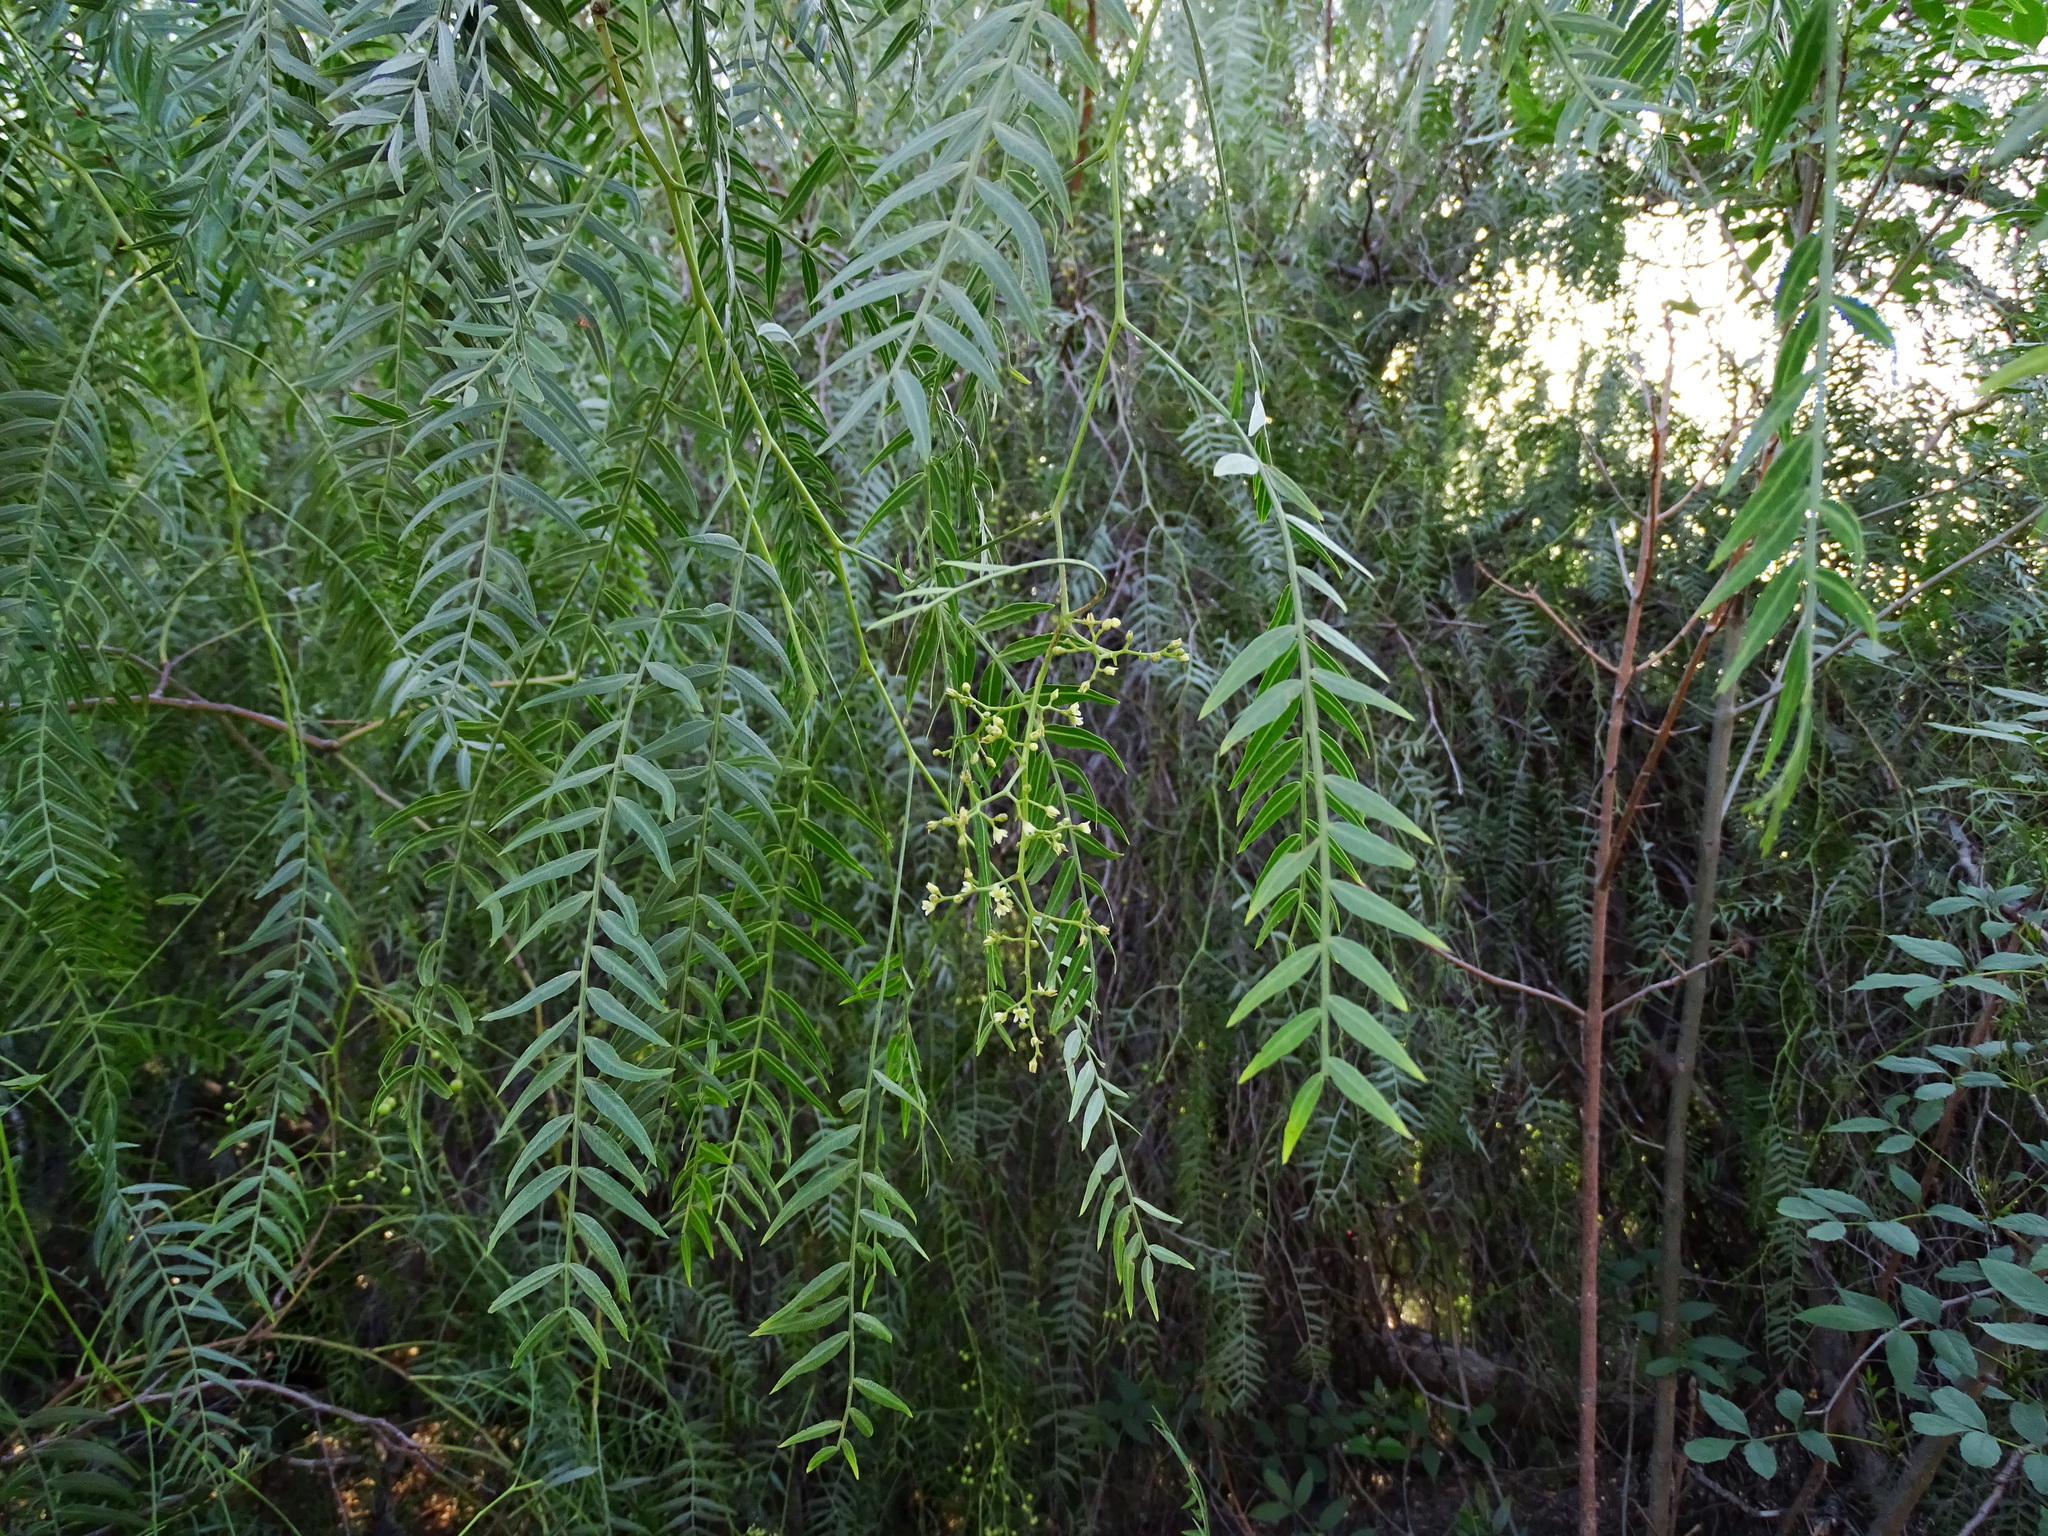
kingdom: Plantae
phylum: Tracheophyta
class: Magnoliopsida
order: Sapindales
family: Anacardiaceae
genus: Schinus
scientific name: Schinus molle
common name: Peruvian peppertree
